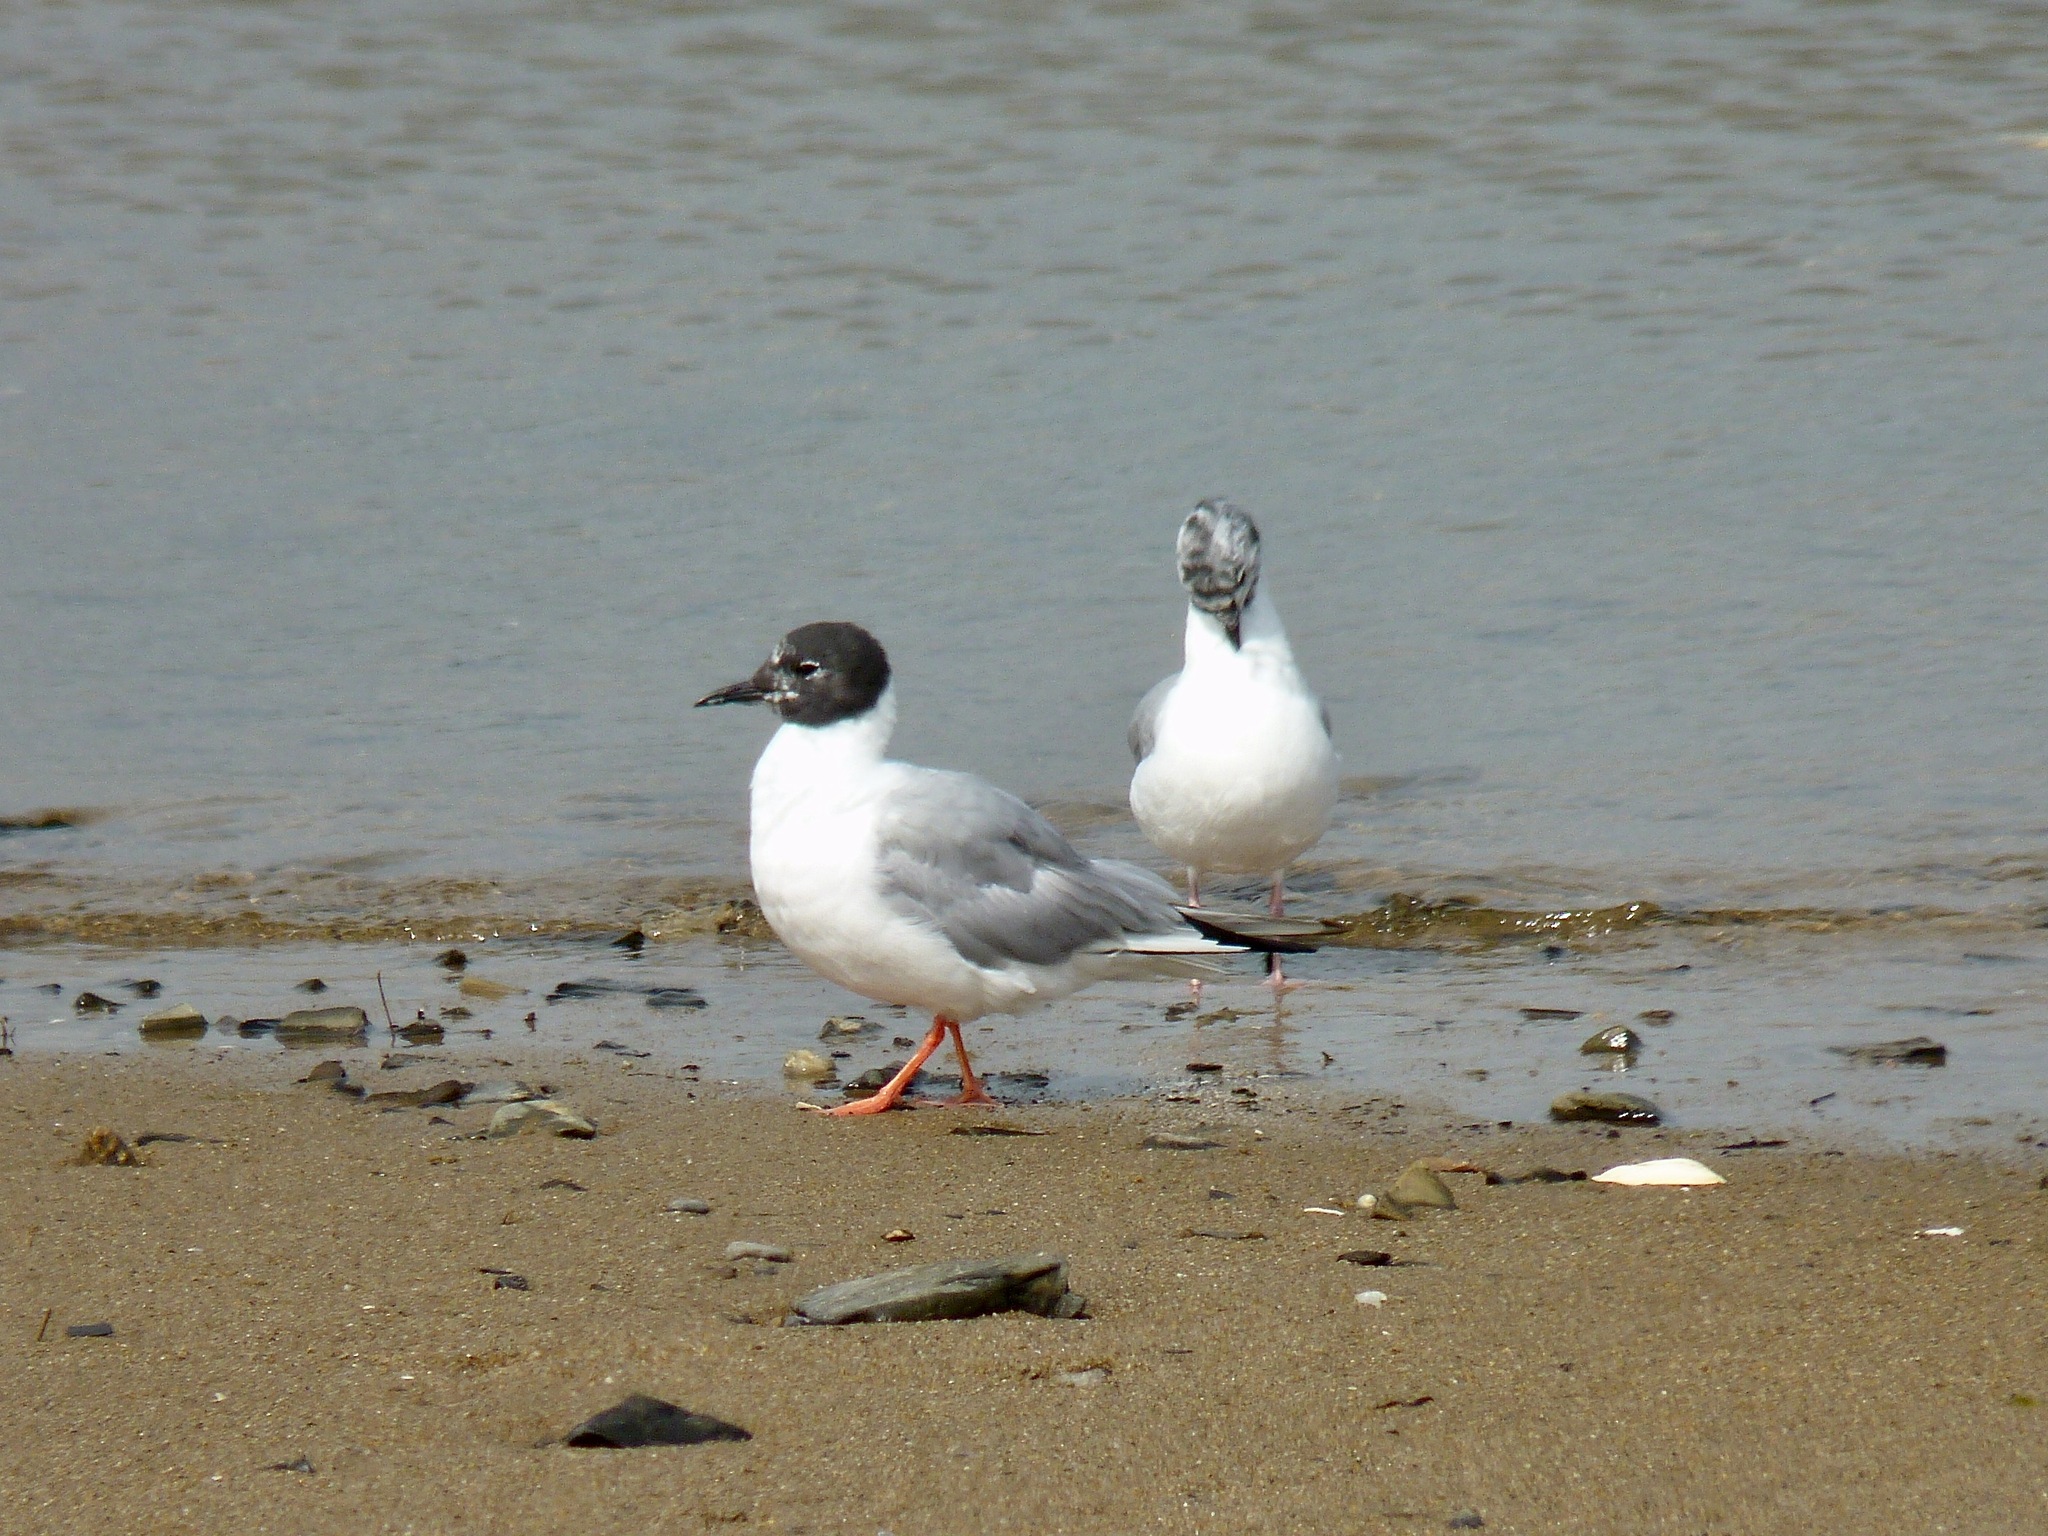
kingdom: Animalia
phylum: Chordata
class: Aves
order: Charadriiformes
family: Laridae
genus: Chroicocephalus
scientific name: Chroicocephalus philadelphia
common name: Bonaparte's gull
